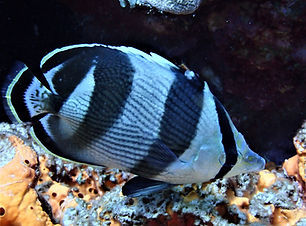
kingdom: Animalia
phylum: Chordata
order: Perciformes
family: Chaetodontidae
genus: Chaetodon
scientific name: Chaetodon striatus
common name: Banded butterflyfish
